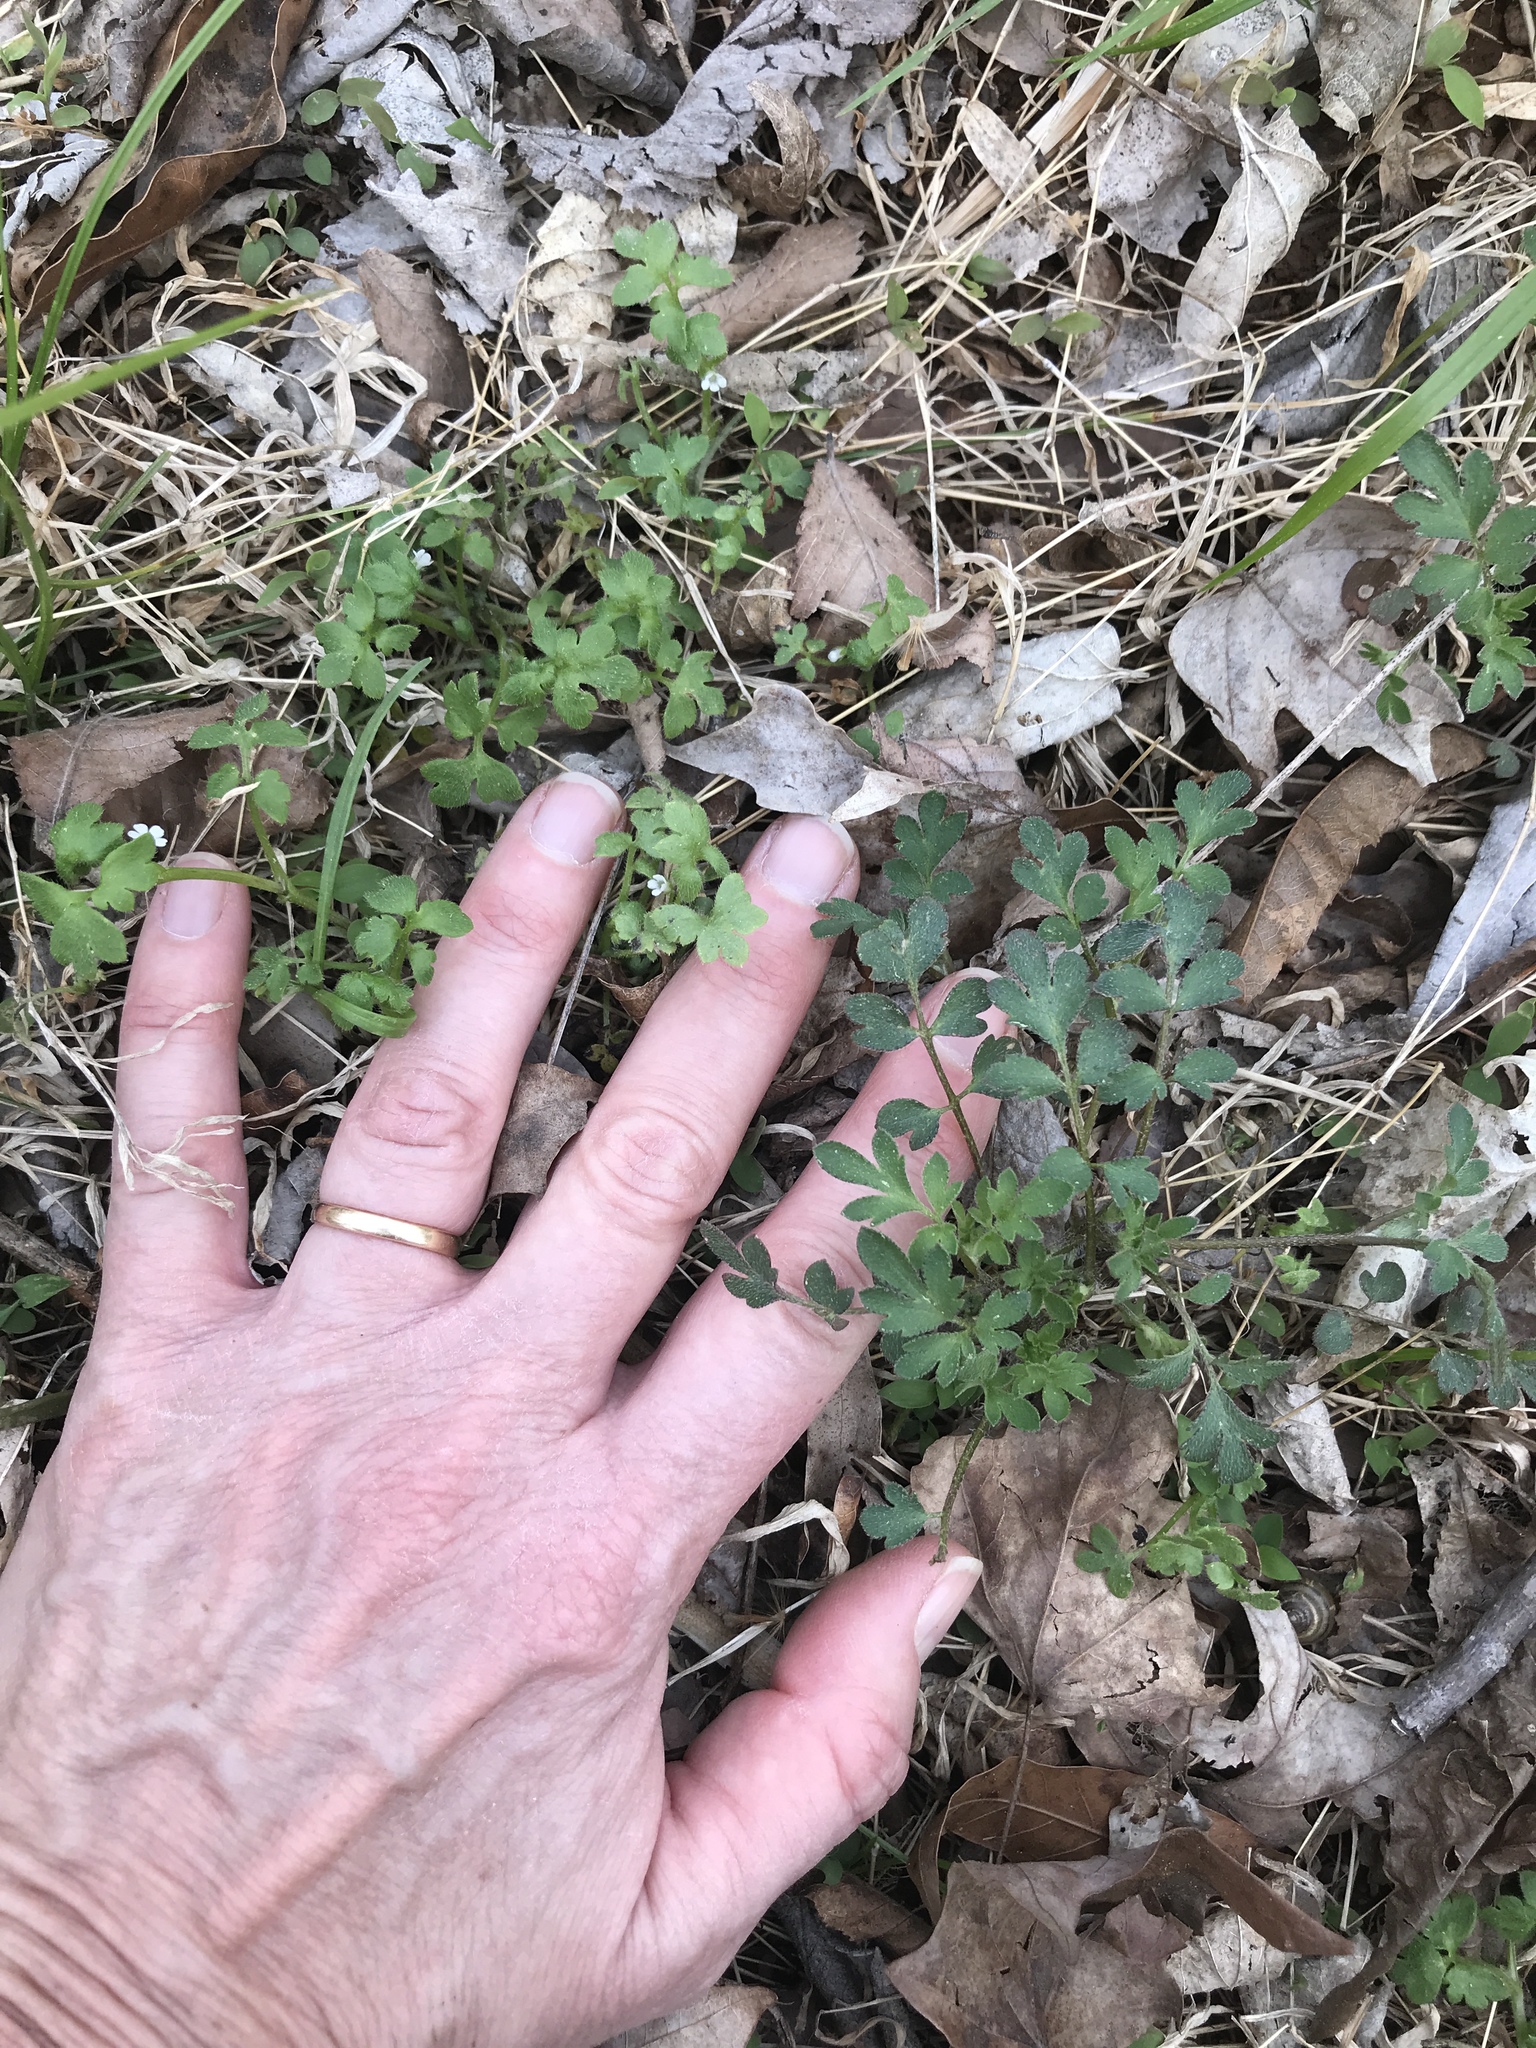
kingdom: Plantae
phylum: Tracheophyta
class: Magnoliopsida
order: Boraginales
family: Hydrophyllaceae
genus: Phacelia
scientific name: Phacelia covillei
